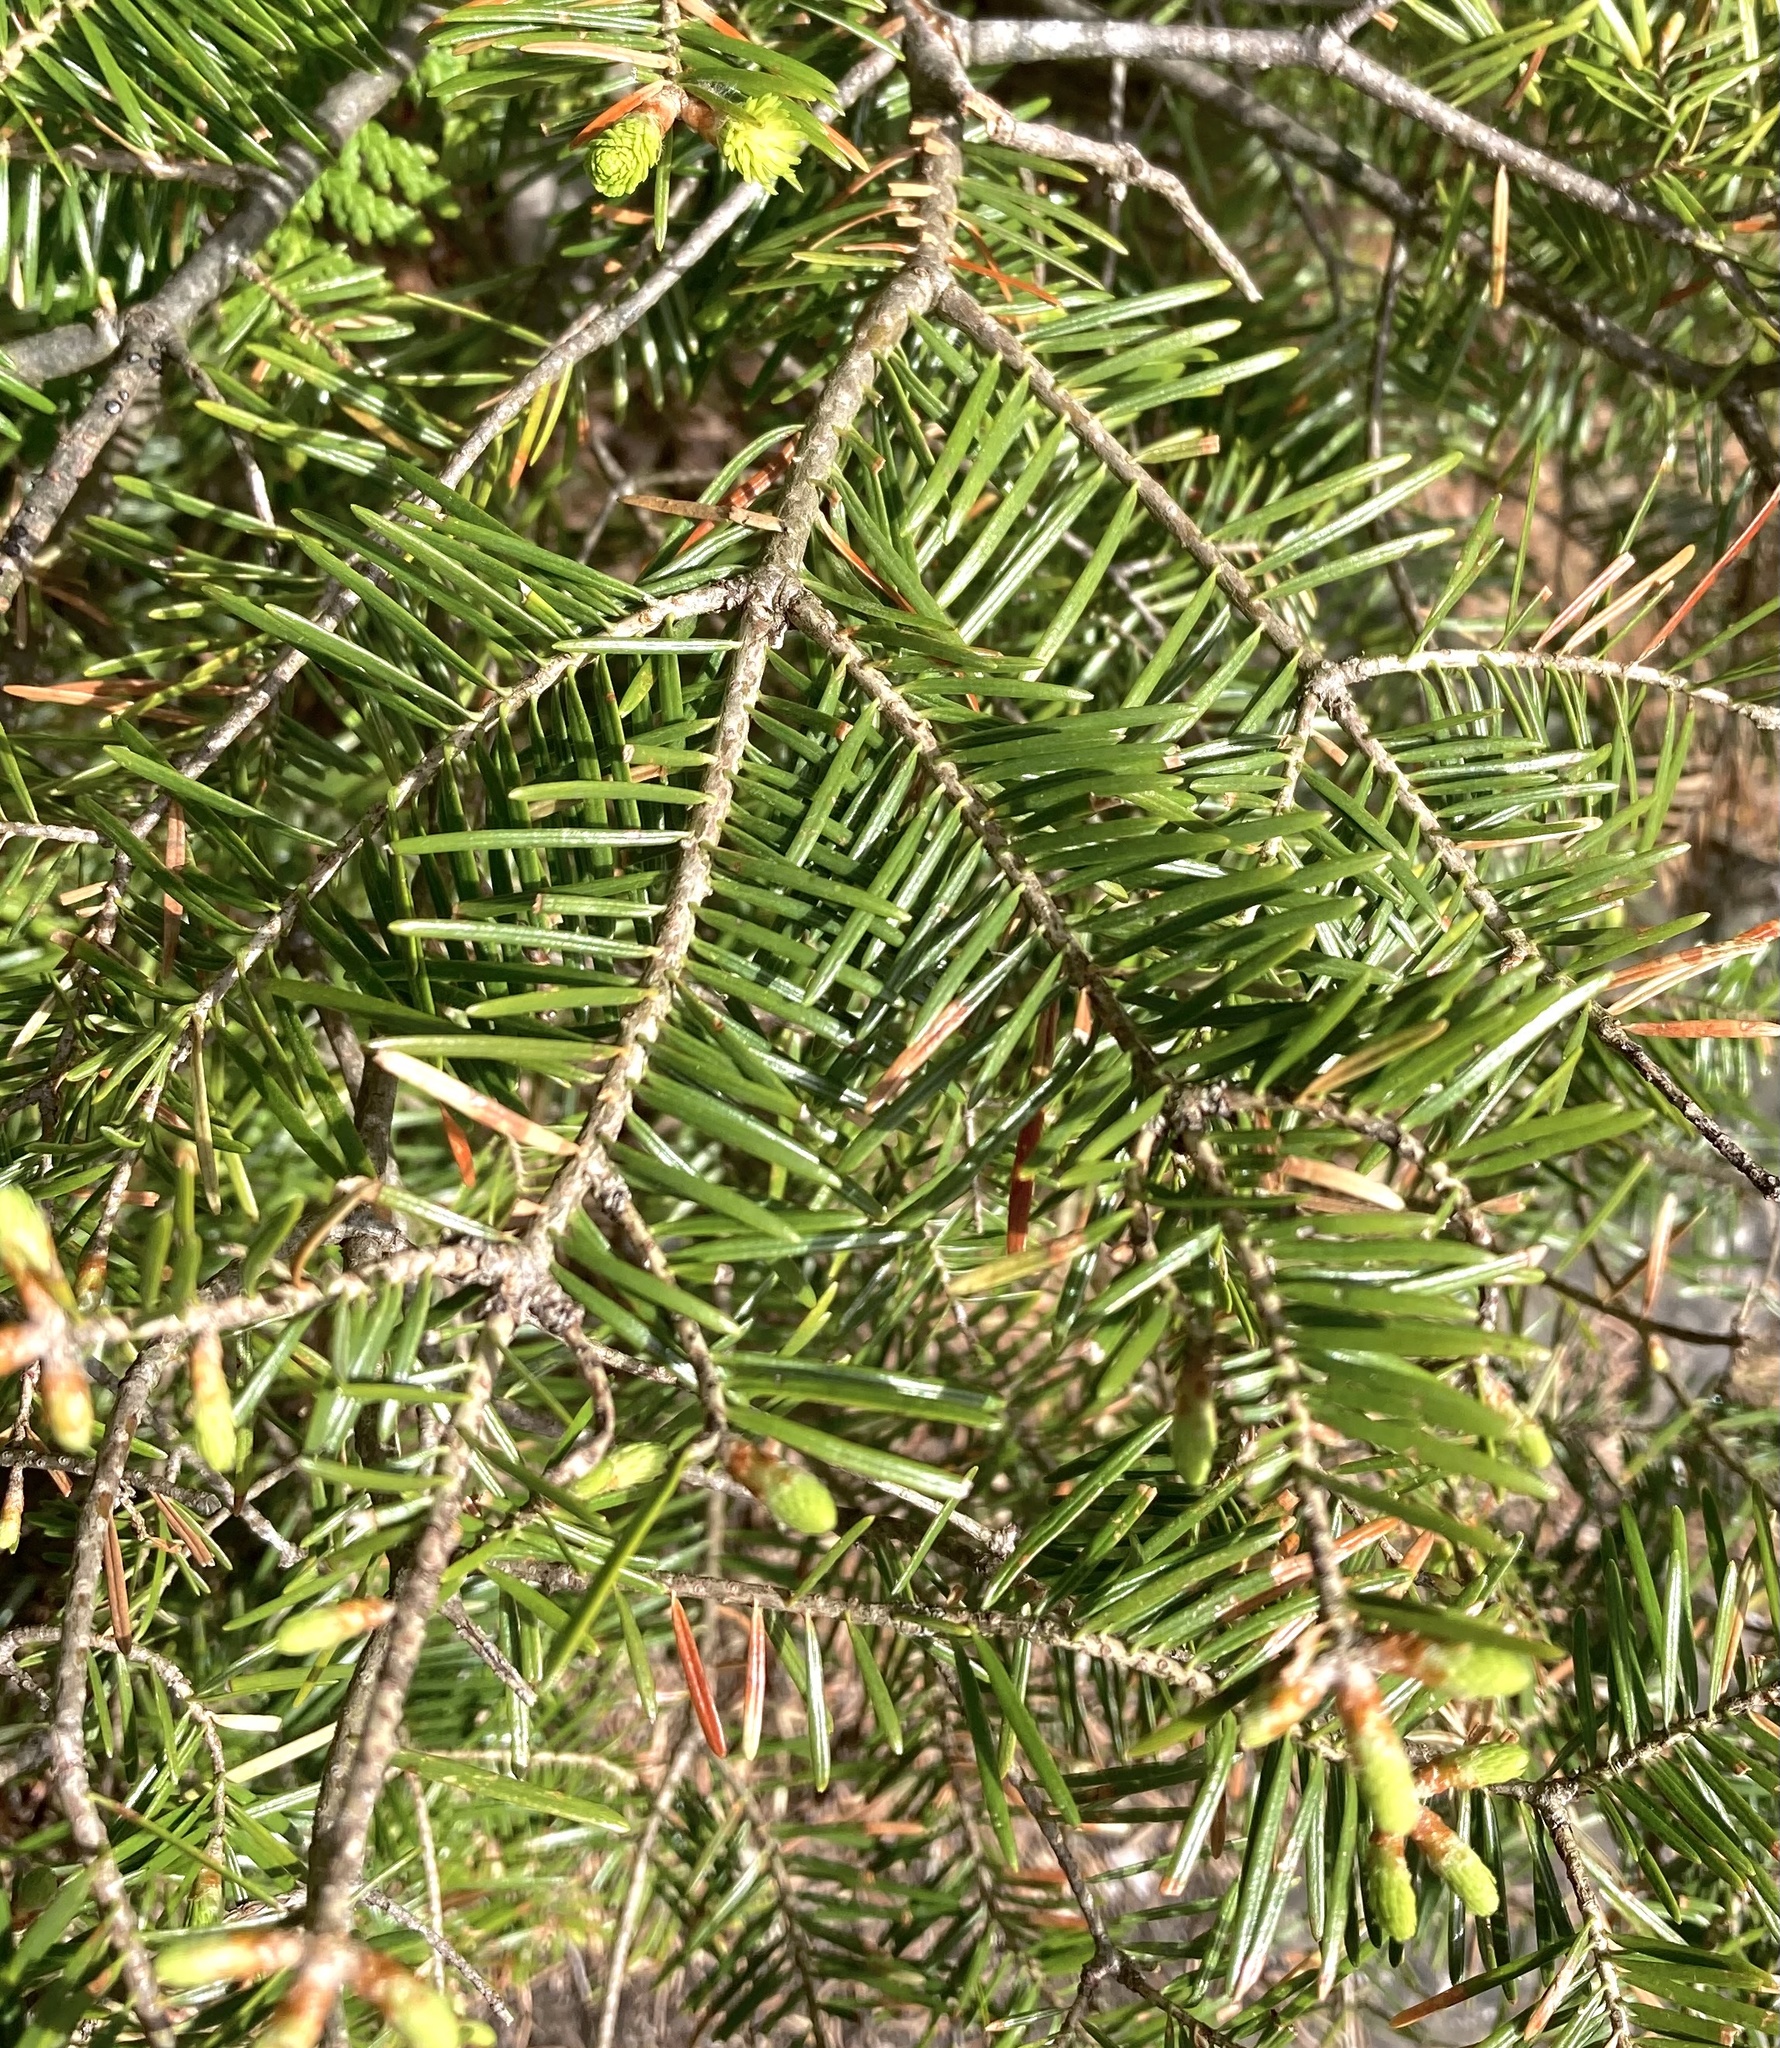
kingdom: Plantae
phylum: Tracheophyta
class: Pinopsida
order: Pinales
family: Pinaceae
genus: Abies
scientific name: Abies balsamea
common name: Balsam fir
